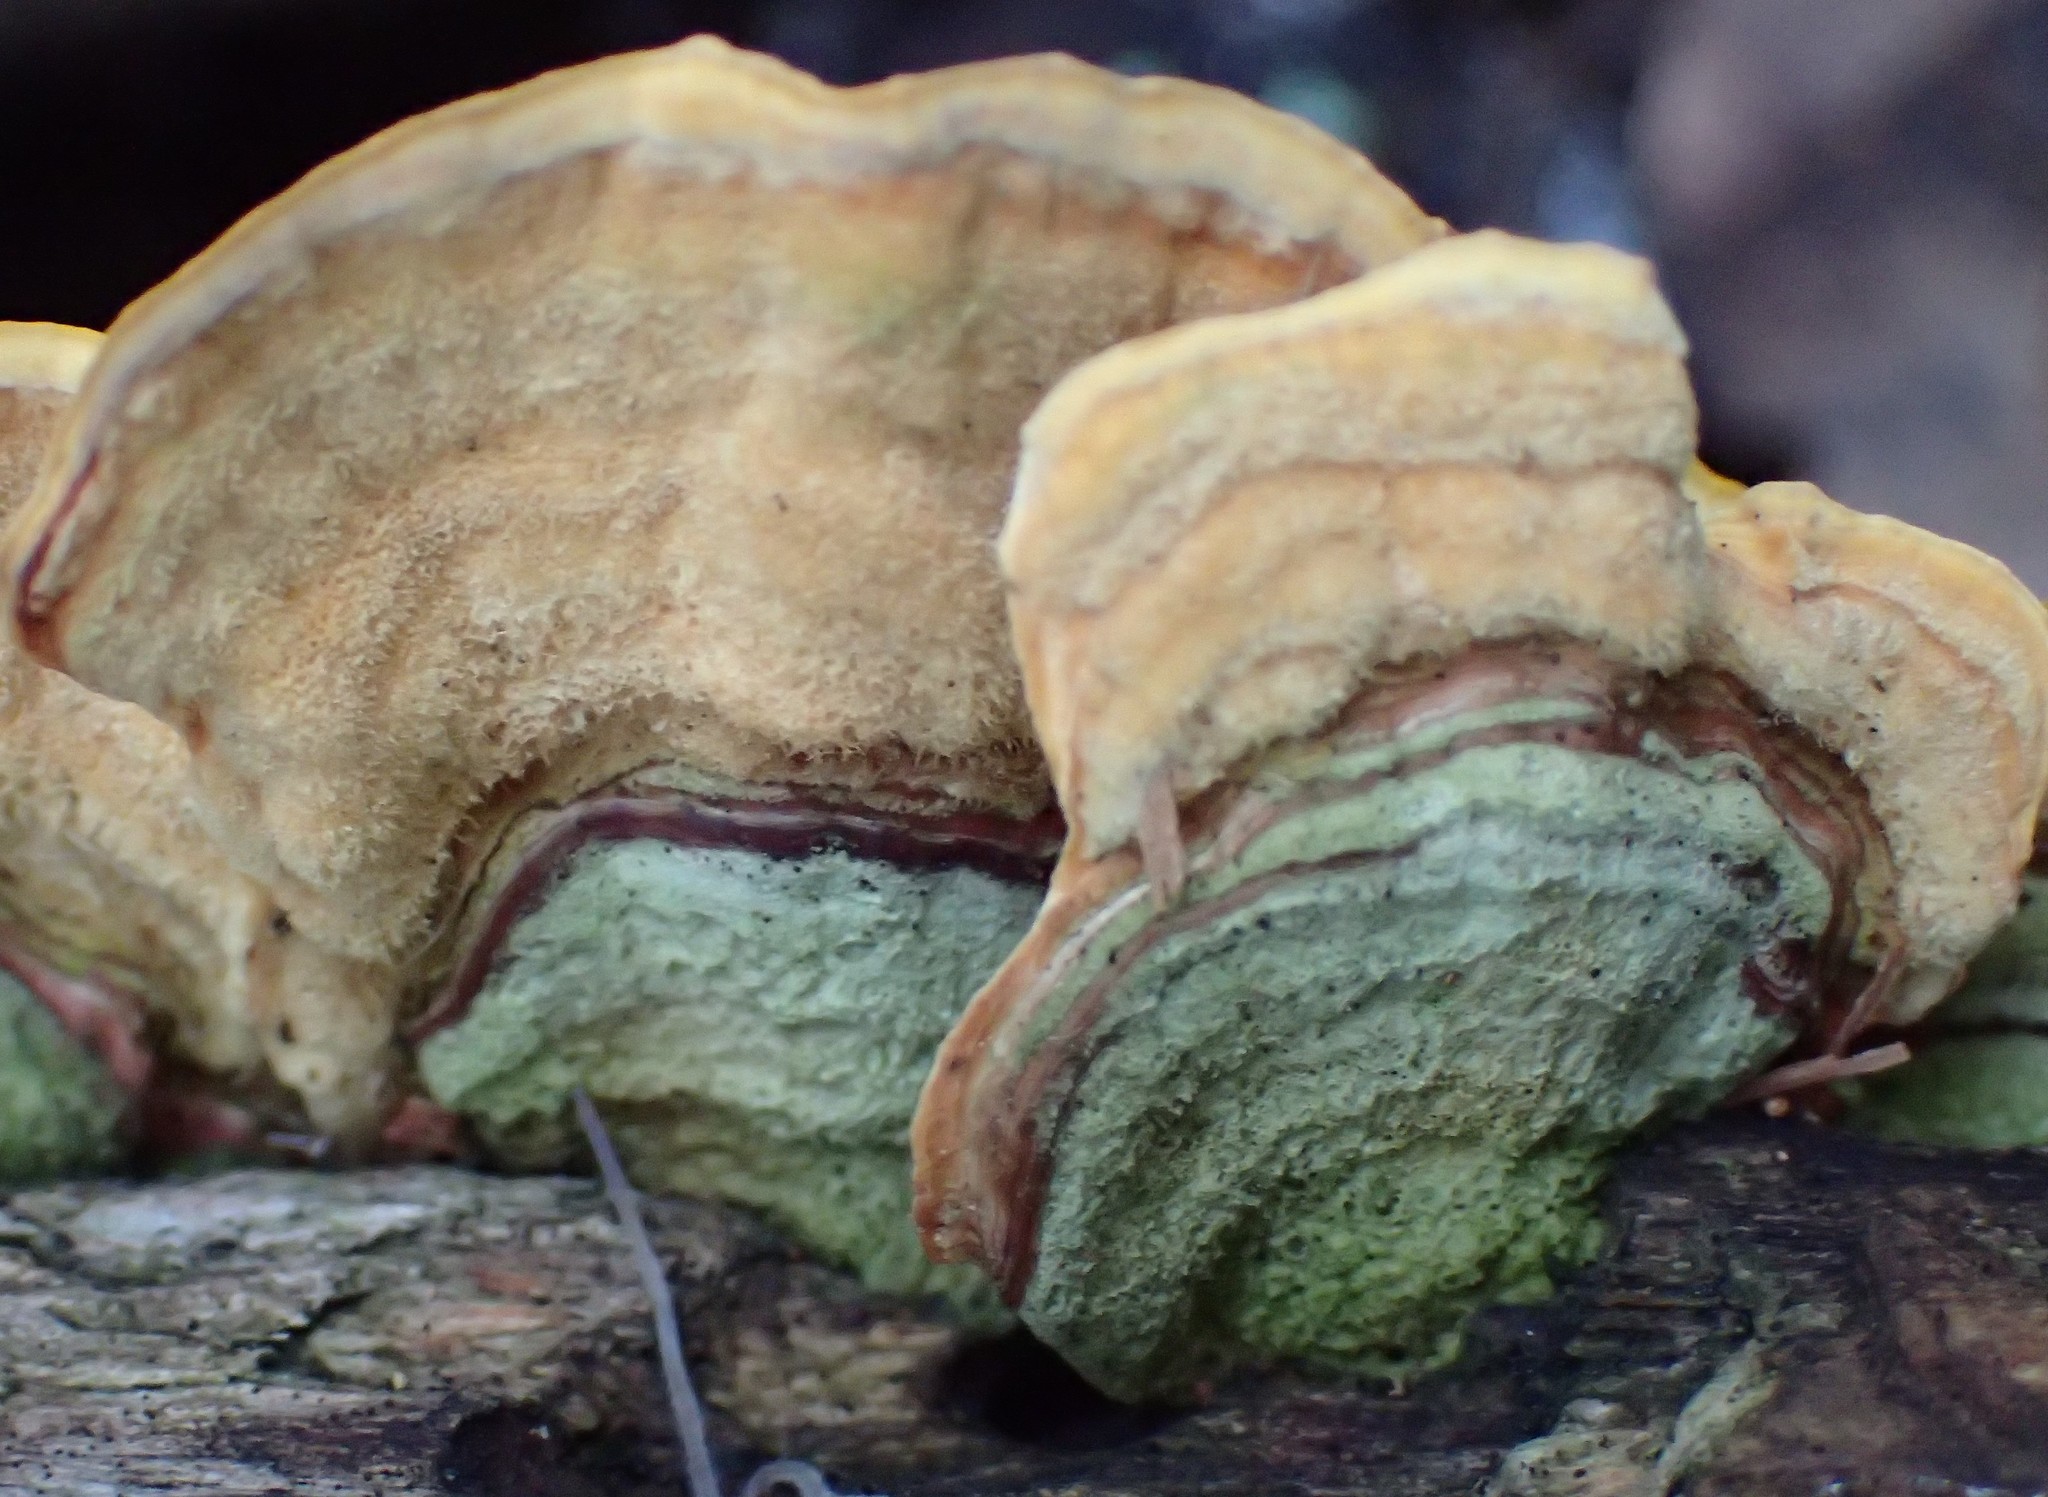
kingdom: Fungi
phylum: Basidiomycota
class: Agaricomycetes
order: Russulales
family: Stereaceae
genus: Stereum
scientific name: Stereum versicolor
